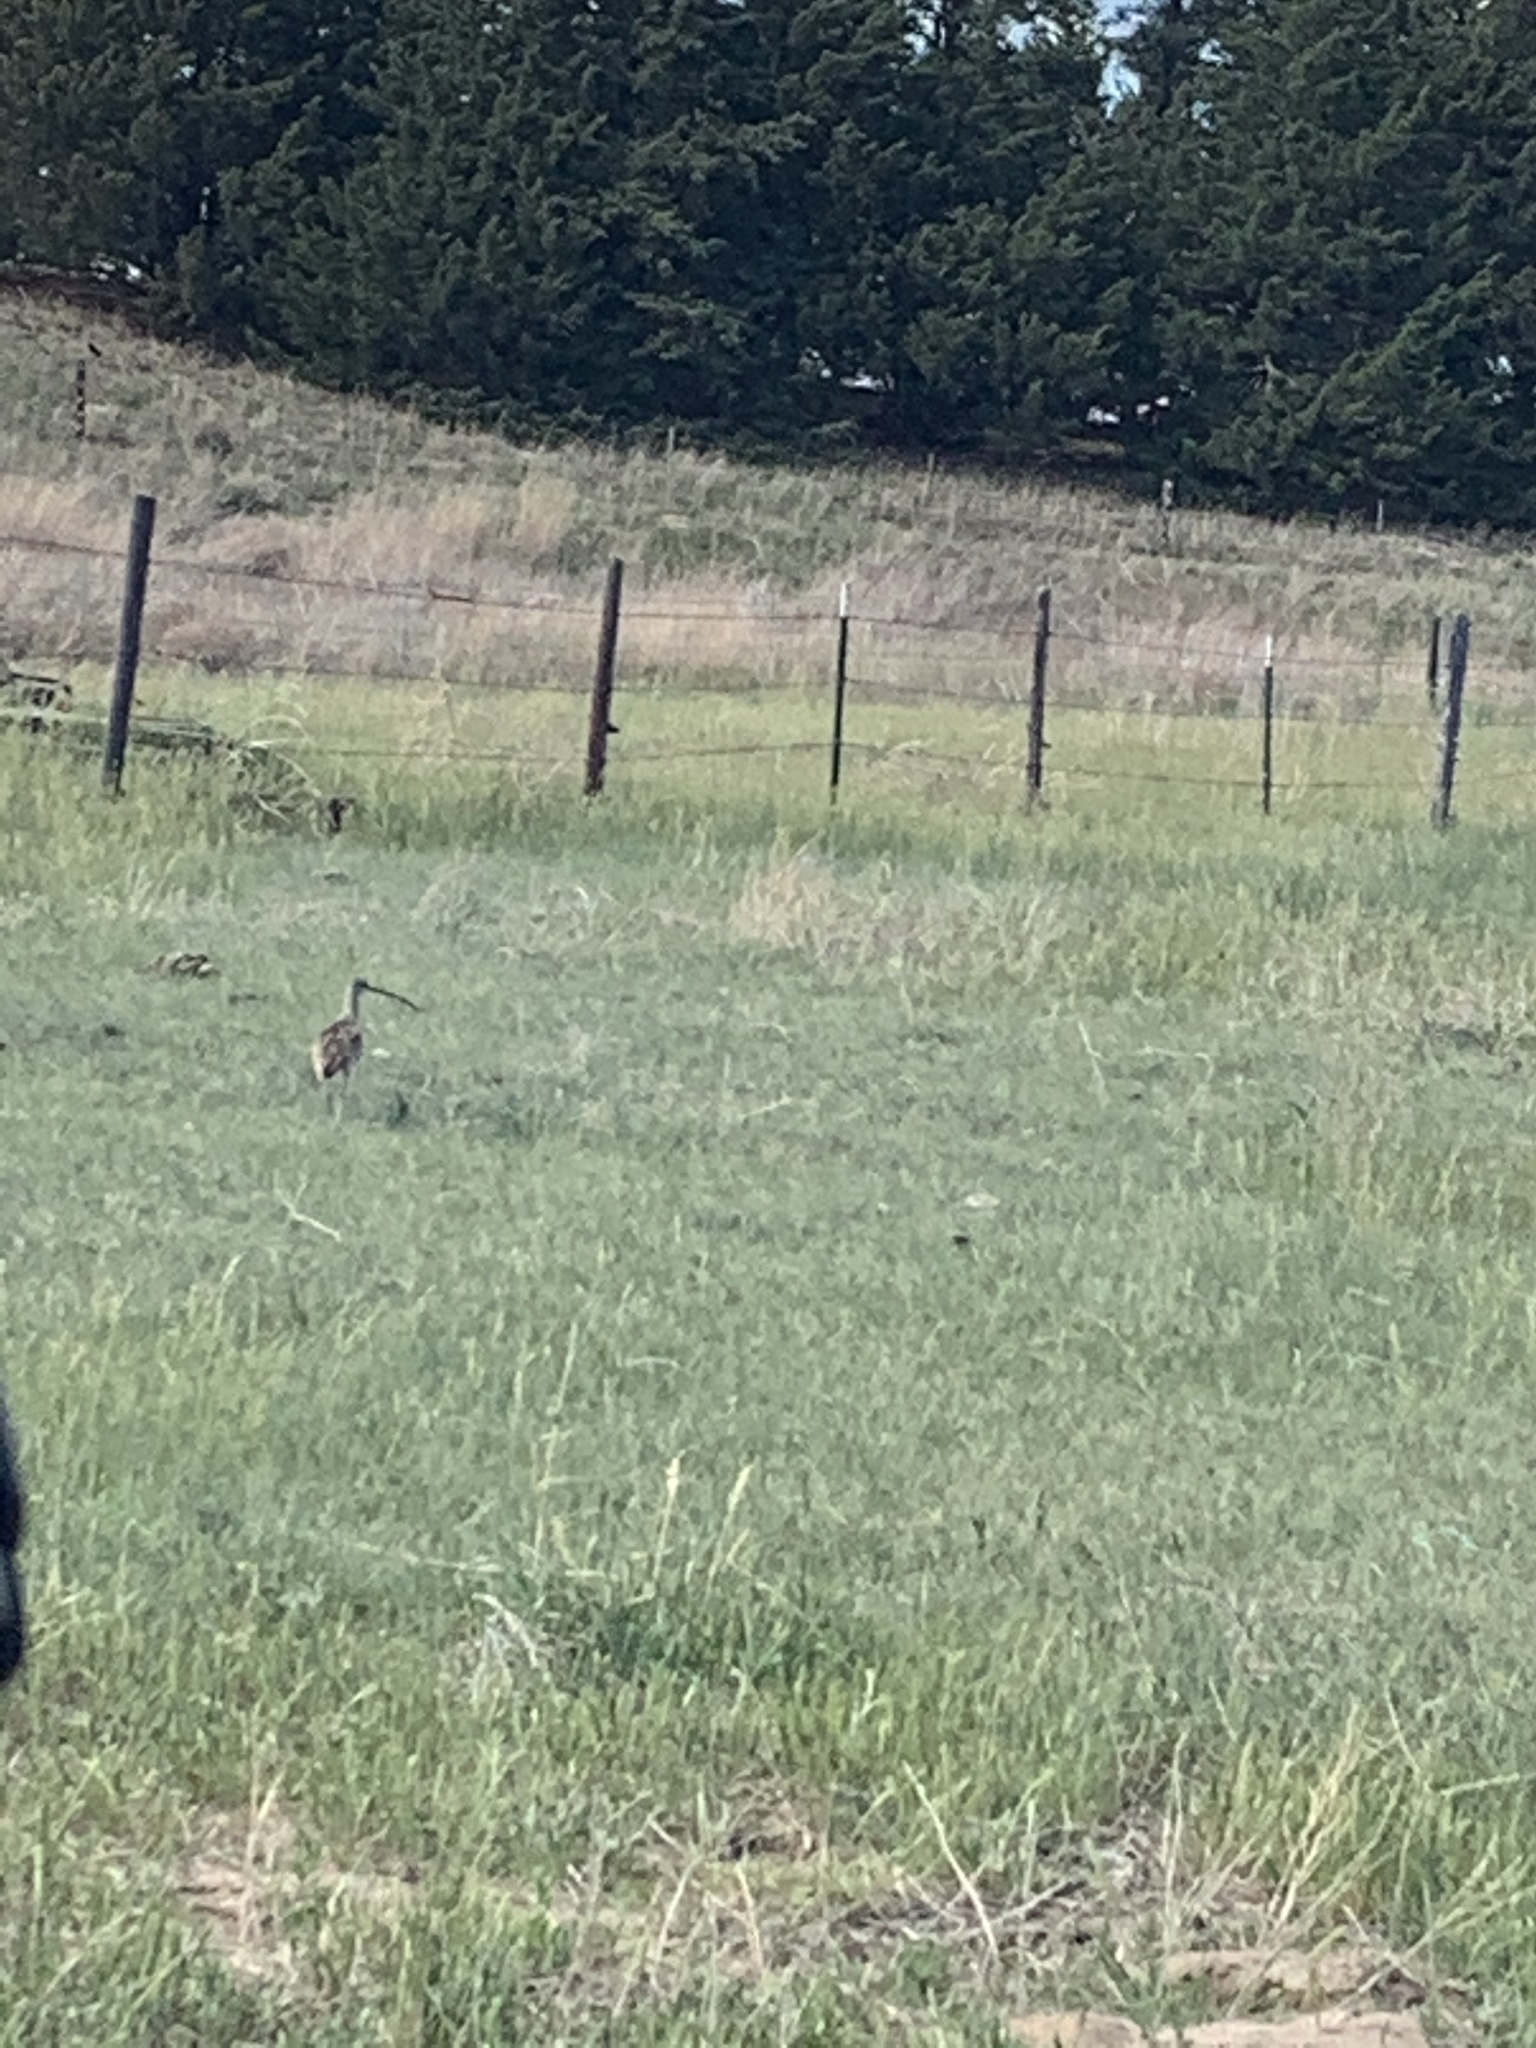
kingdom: Animalia
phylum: Chordata
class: Aves
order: Charadriiformes
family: Scolopacidae
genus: Numenius
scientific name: Numenius americanus
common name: Long-billed curlew
